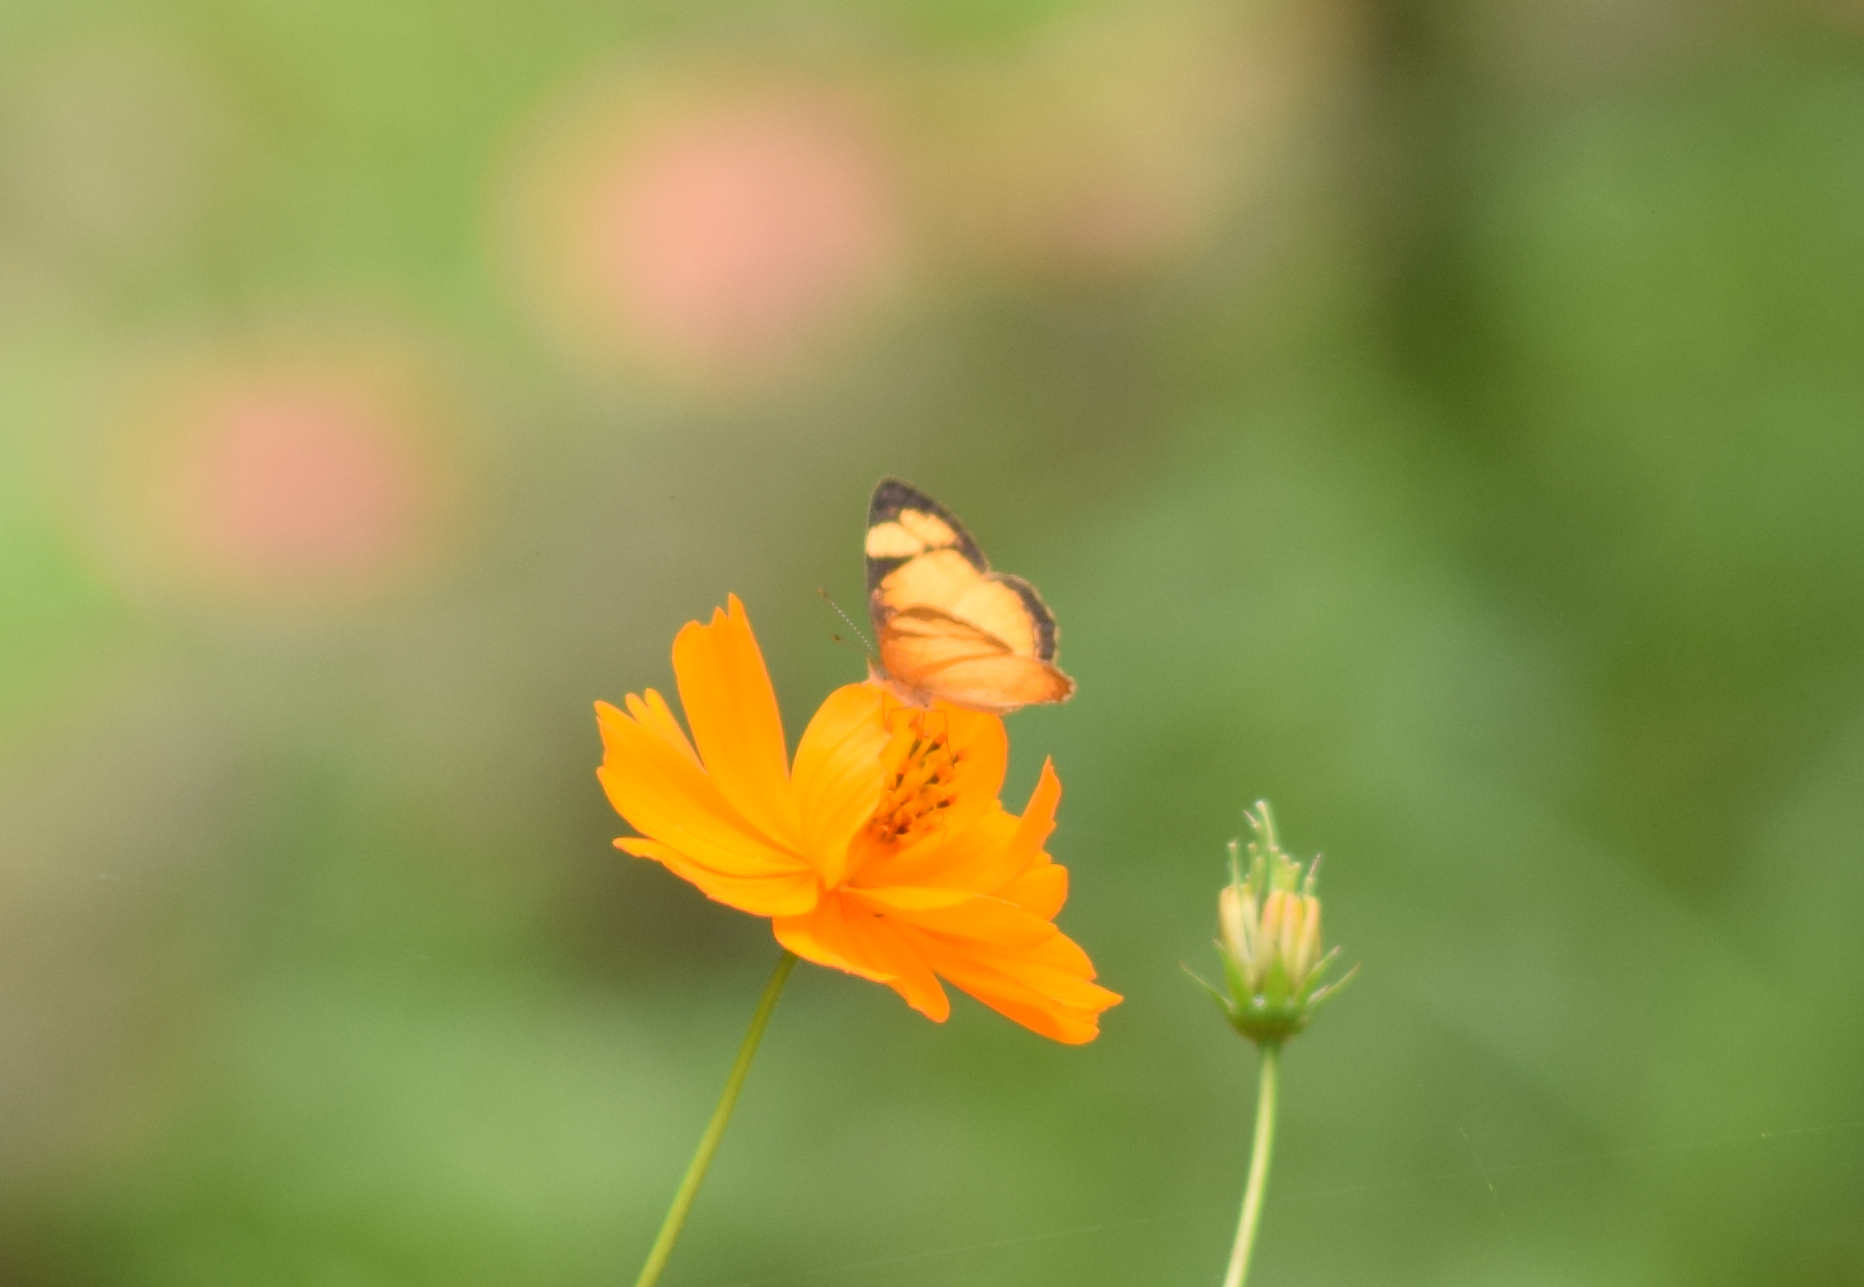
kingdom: Animalia
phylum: Arthropoda
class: Insecta
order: Lepidoptera
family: Nymphalidae
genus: Tegosa
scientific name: Tegosa claudina
